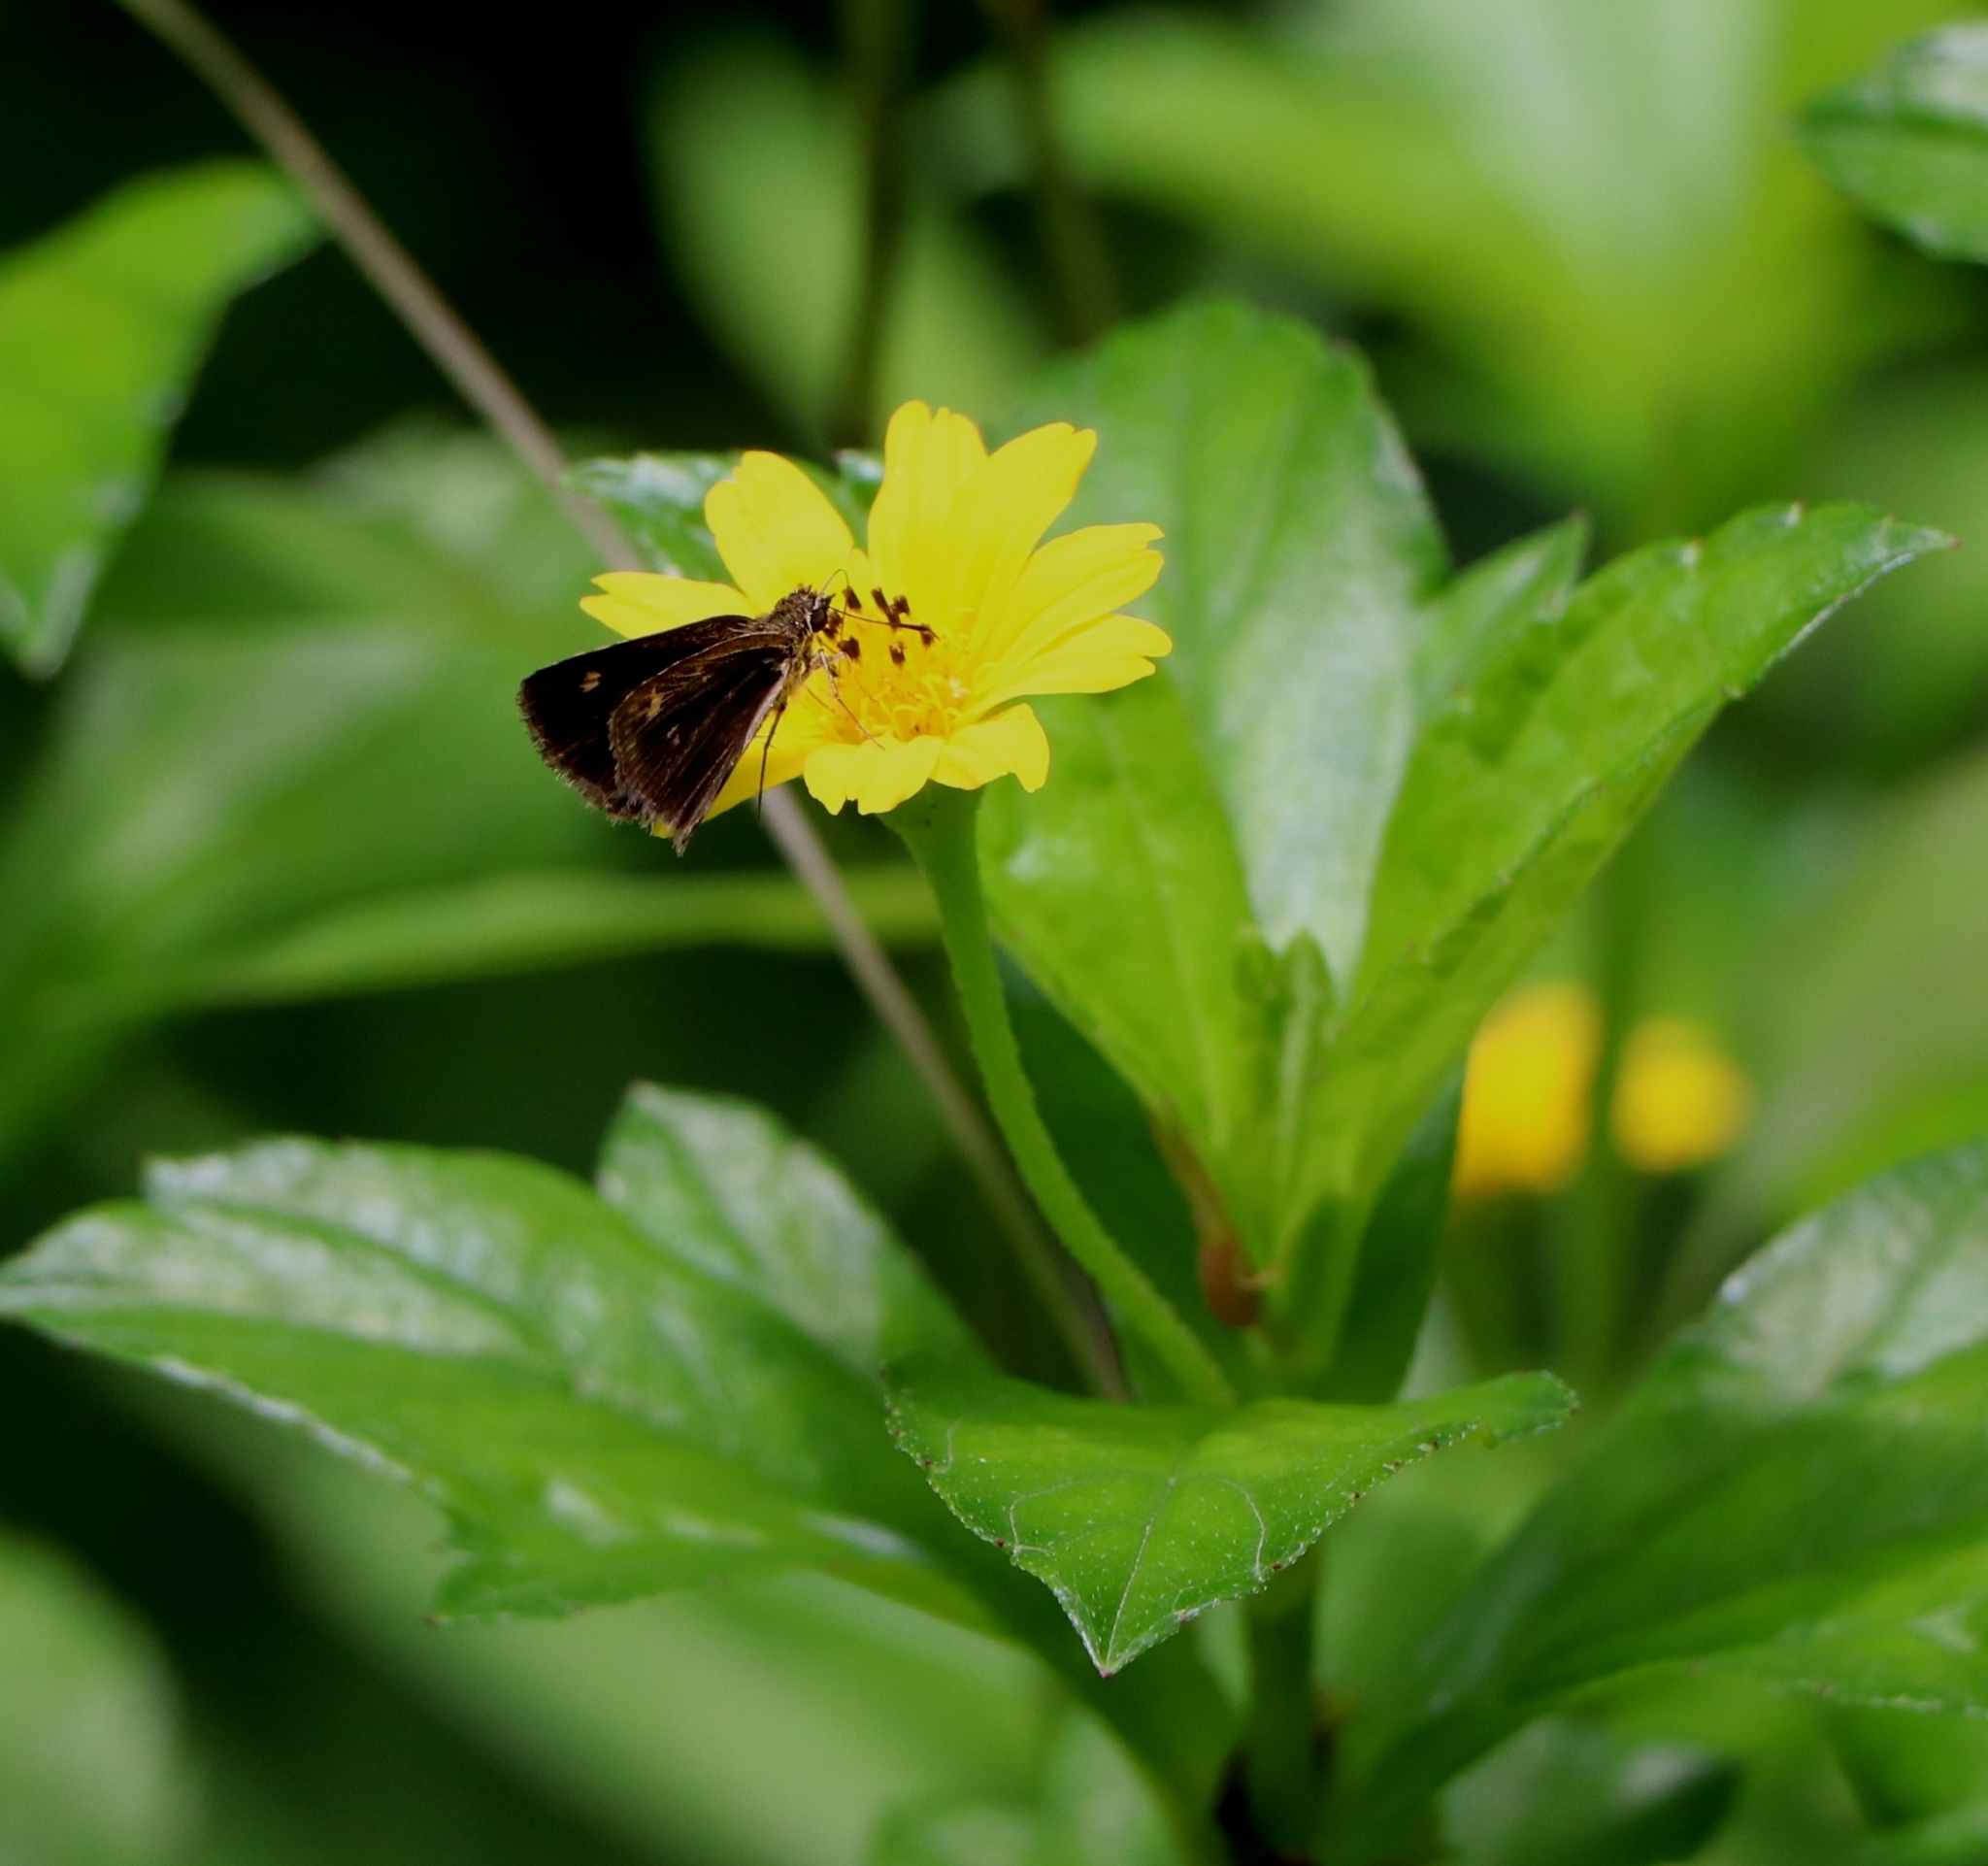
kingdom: Animalia
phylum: Arthropoda
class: Insecta
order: Lepidoptera
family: Hesperiidae
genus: Baracus
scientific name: Baracus vittatus
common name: Hedge-hopper
